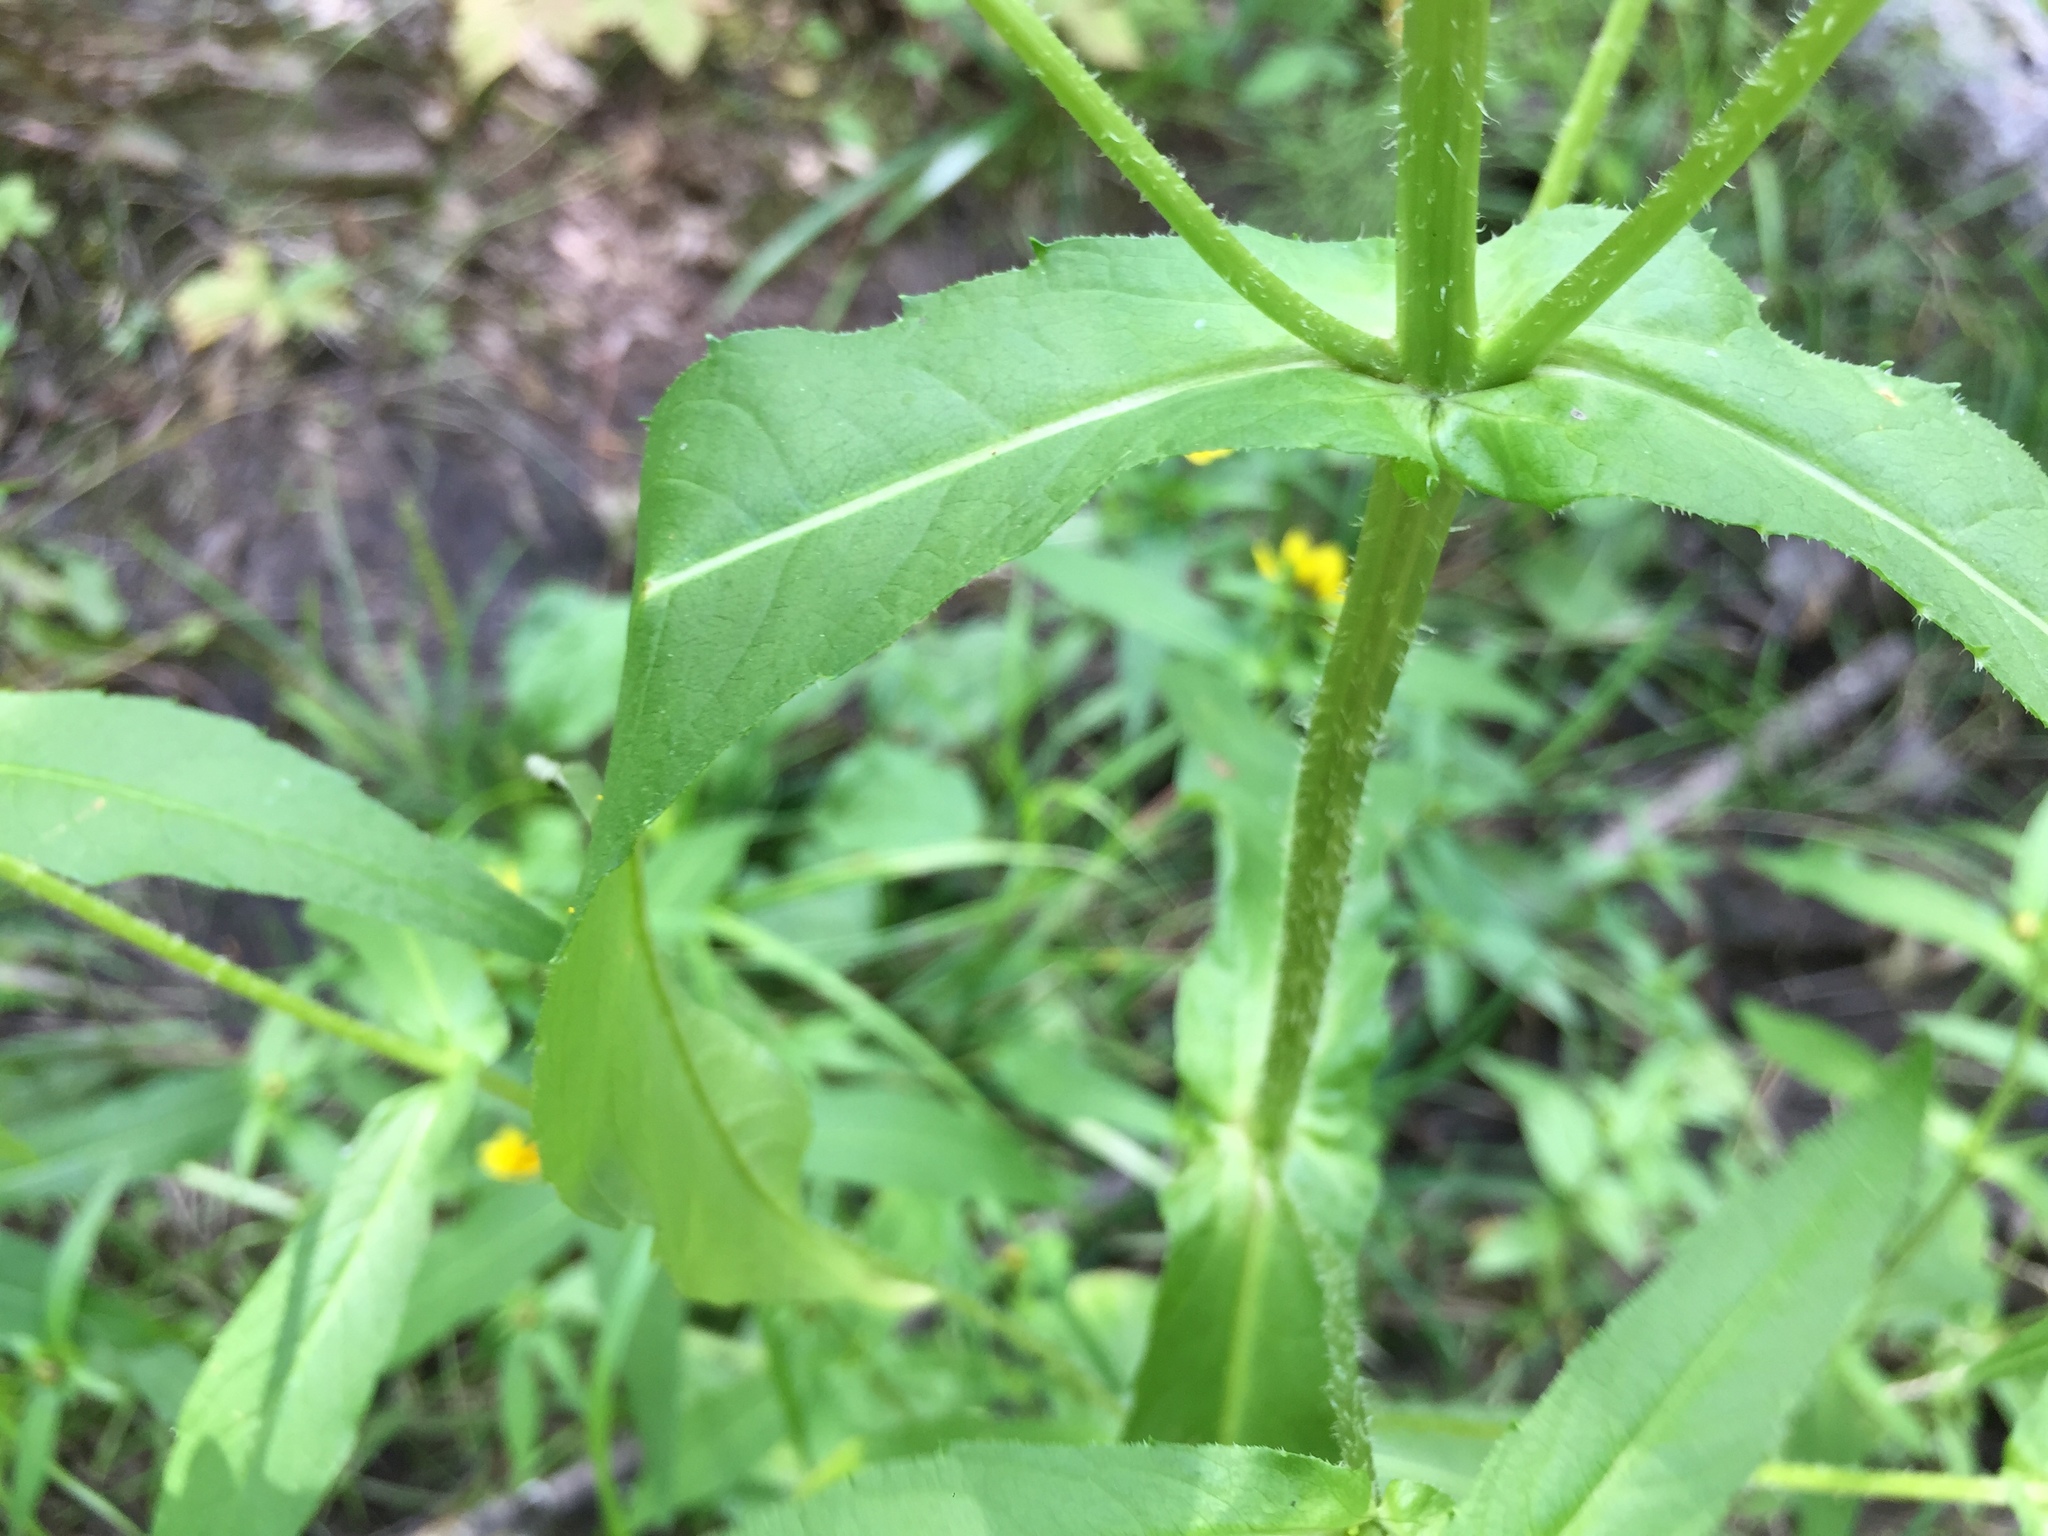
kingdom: Plantae
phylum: Tracheophyta
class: Magnoliopsida
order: Asterales
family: Asteraceae
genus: Bidens
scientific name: Bidens cernua
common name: Nodding bur-marigold
